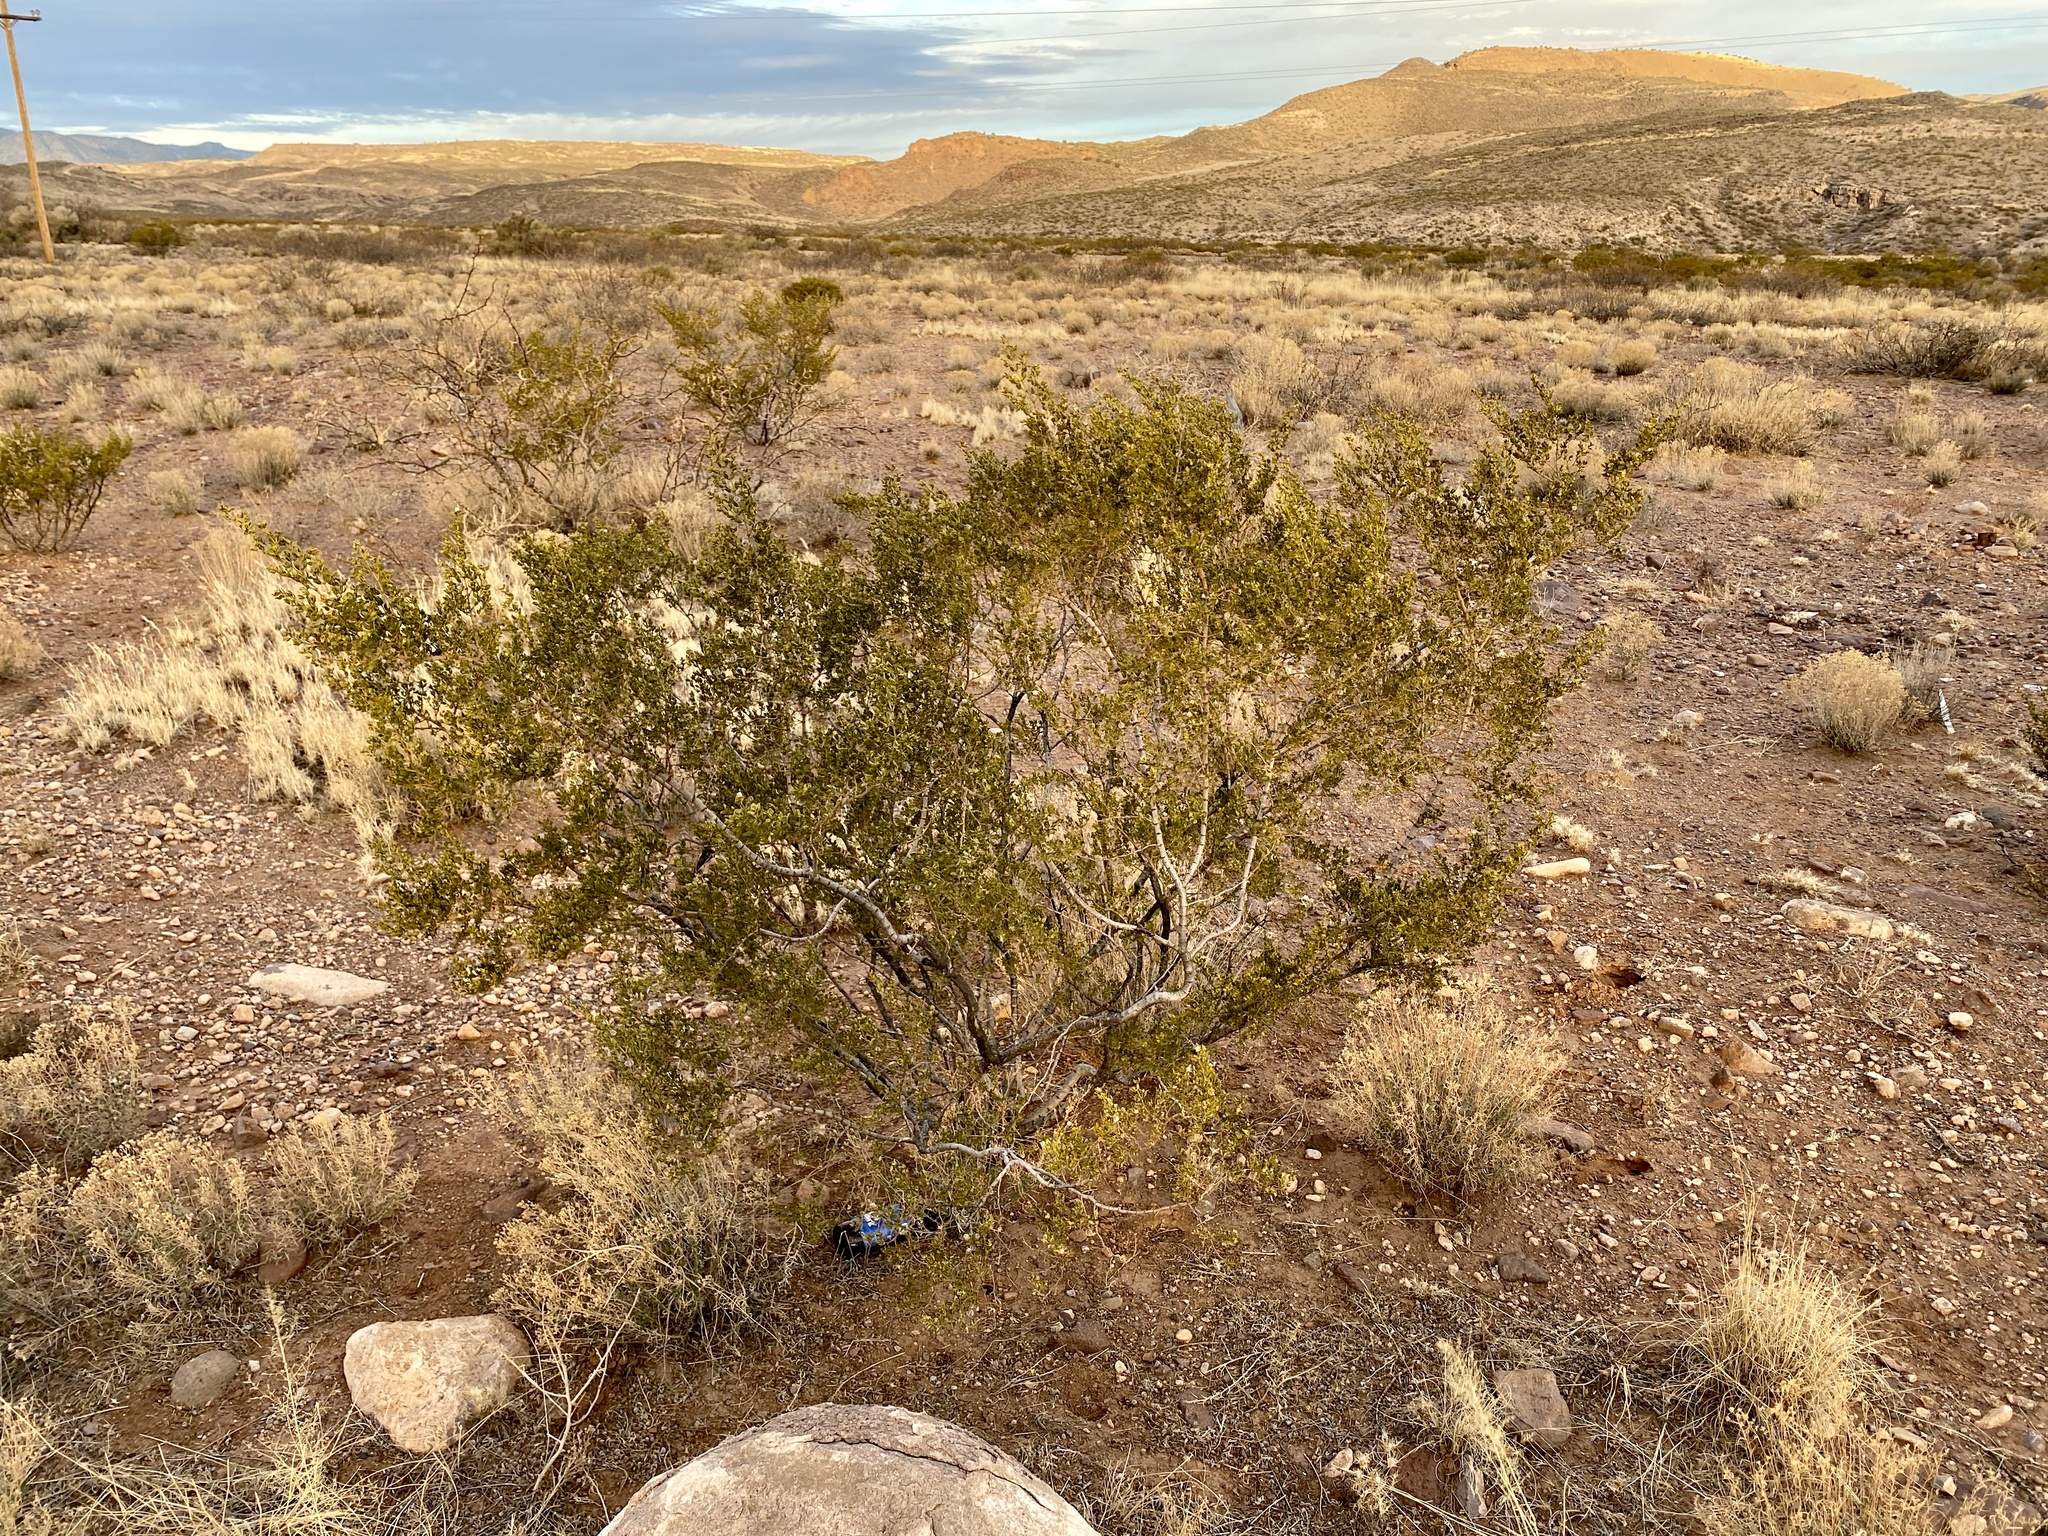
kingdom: Plantae
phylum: Tracheophyta
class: Magnoliopsida
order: Zygophyllales
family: Zygophyllaceae
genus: Larrea
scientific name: Larrea tridentata
